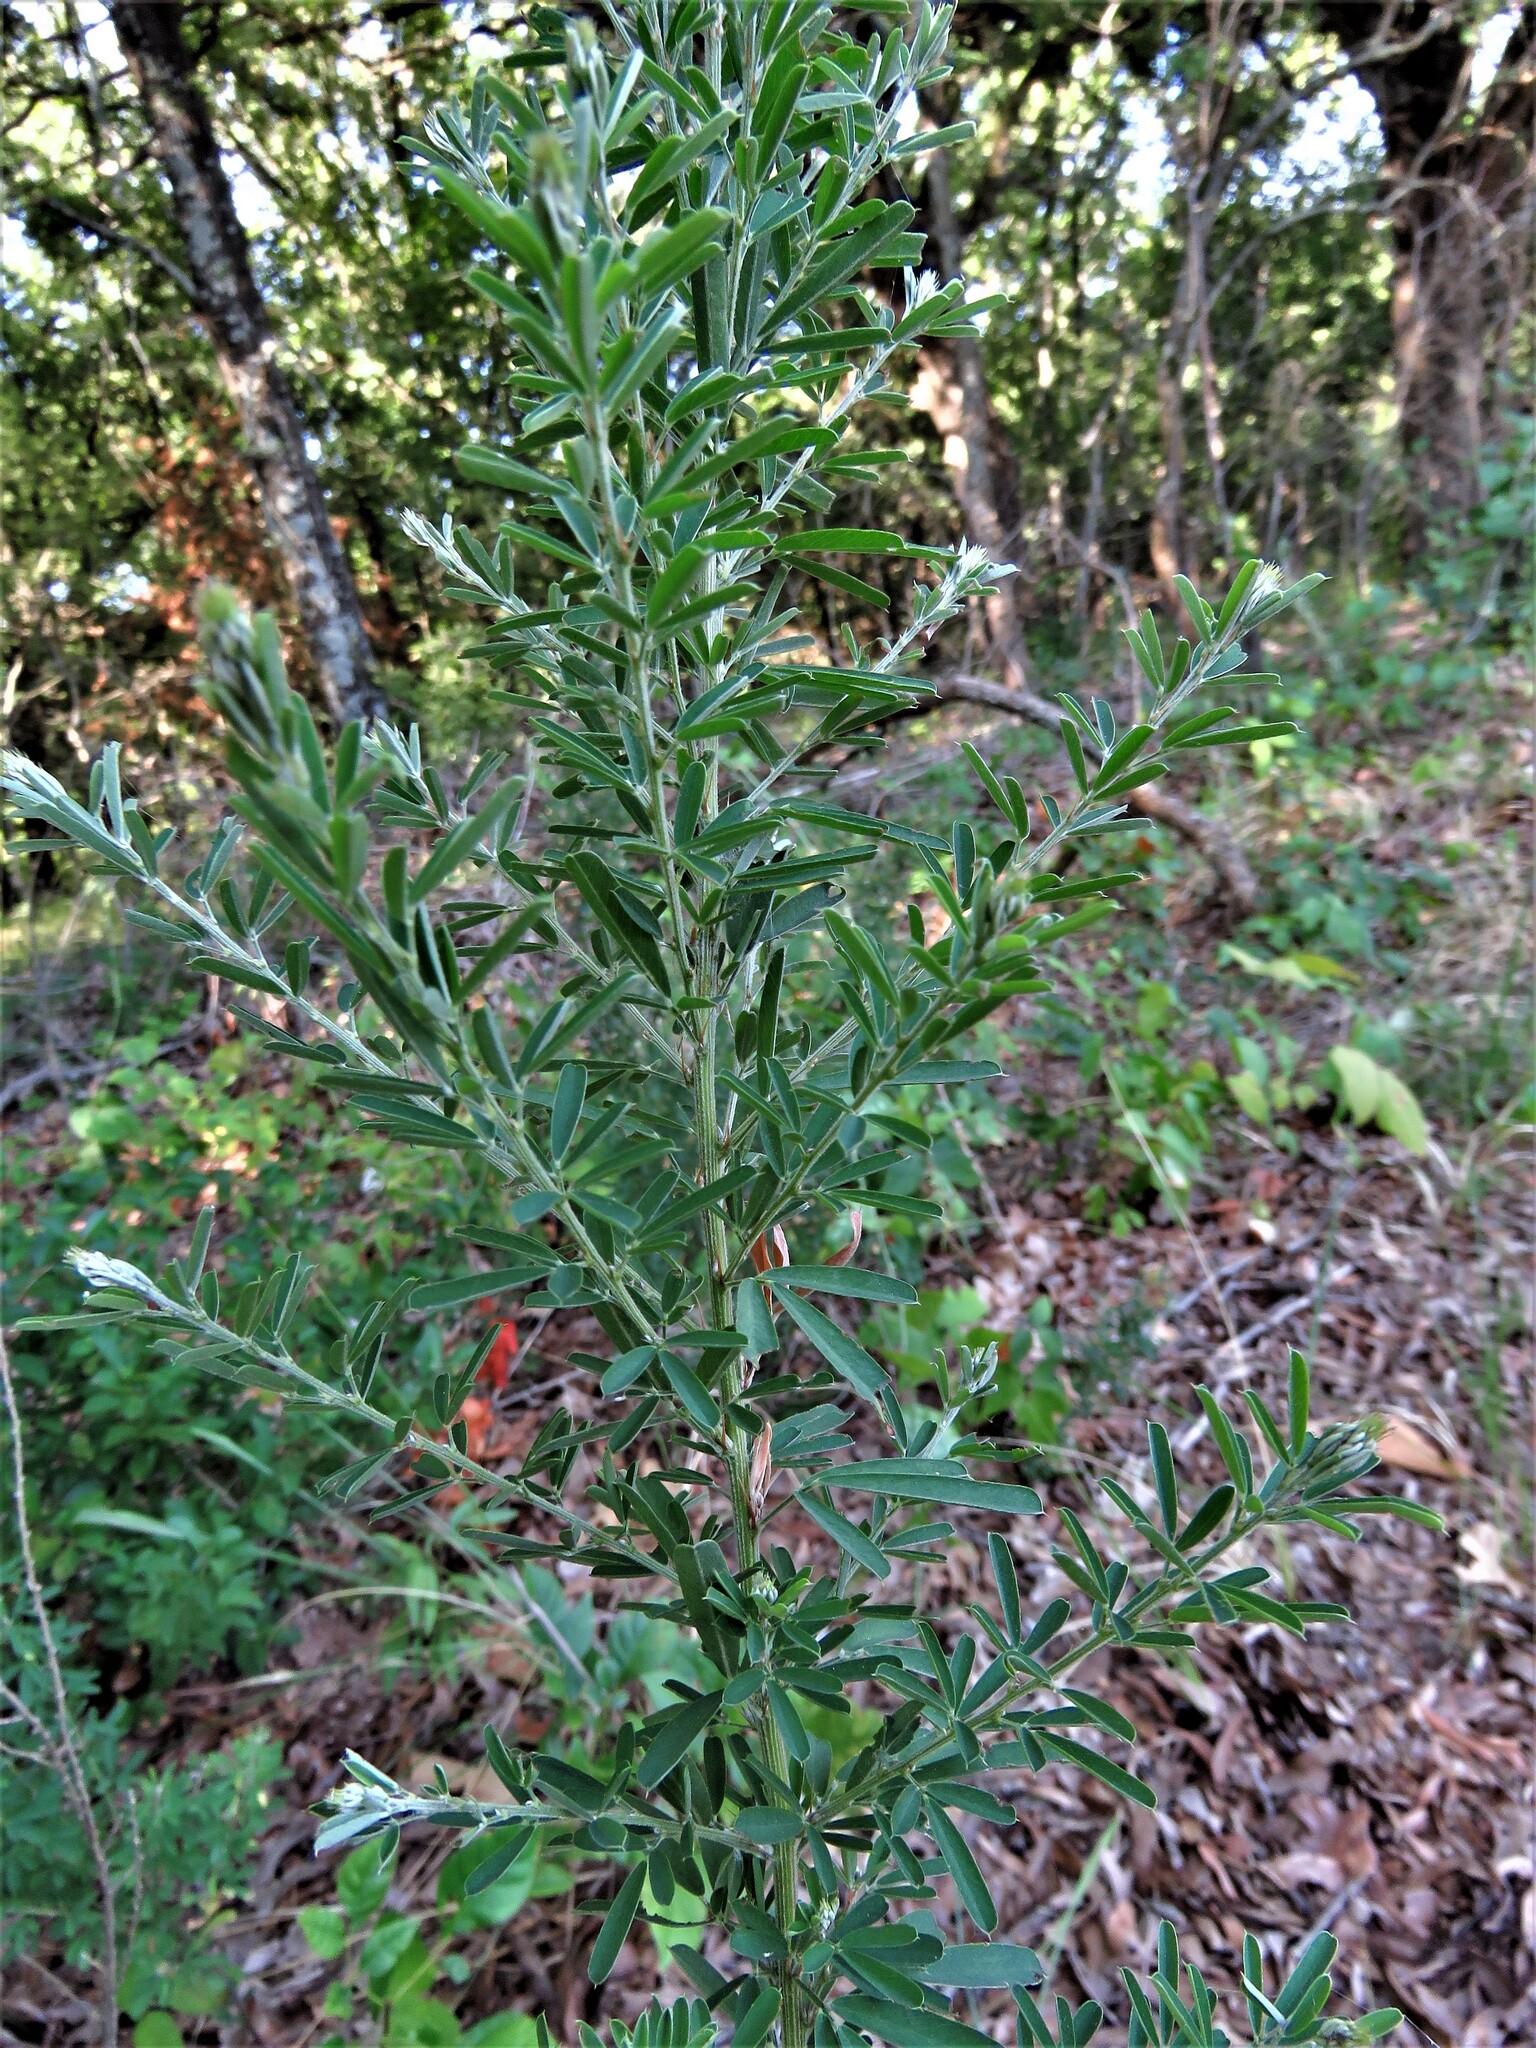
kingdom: Plantae
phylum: Tracheophyta
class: Magnoliopsida
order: Fabales
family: Fabaceae
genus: Lespedeza
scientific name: Lespedeza cuneata
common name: Chinese bush-clover
